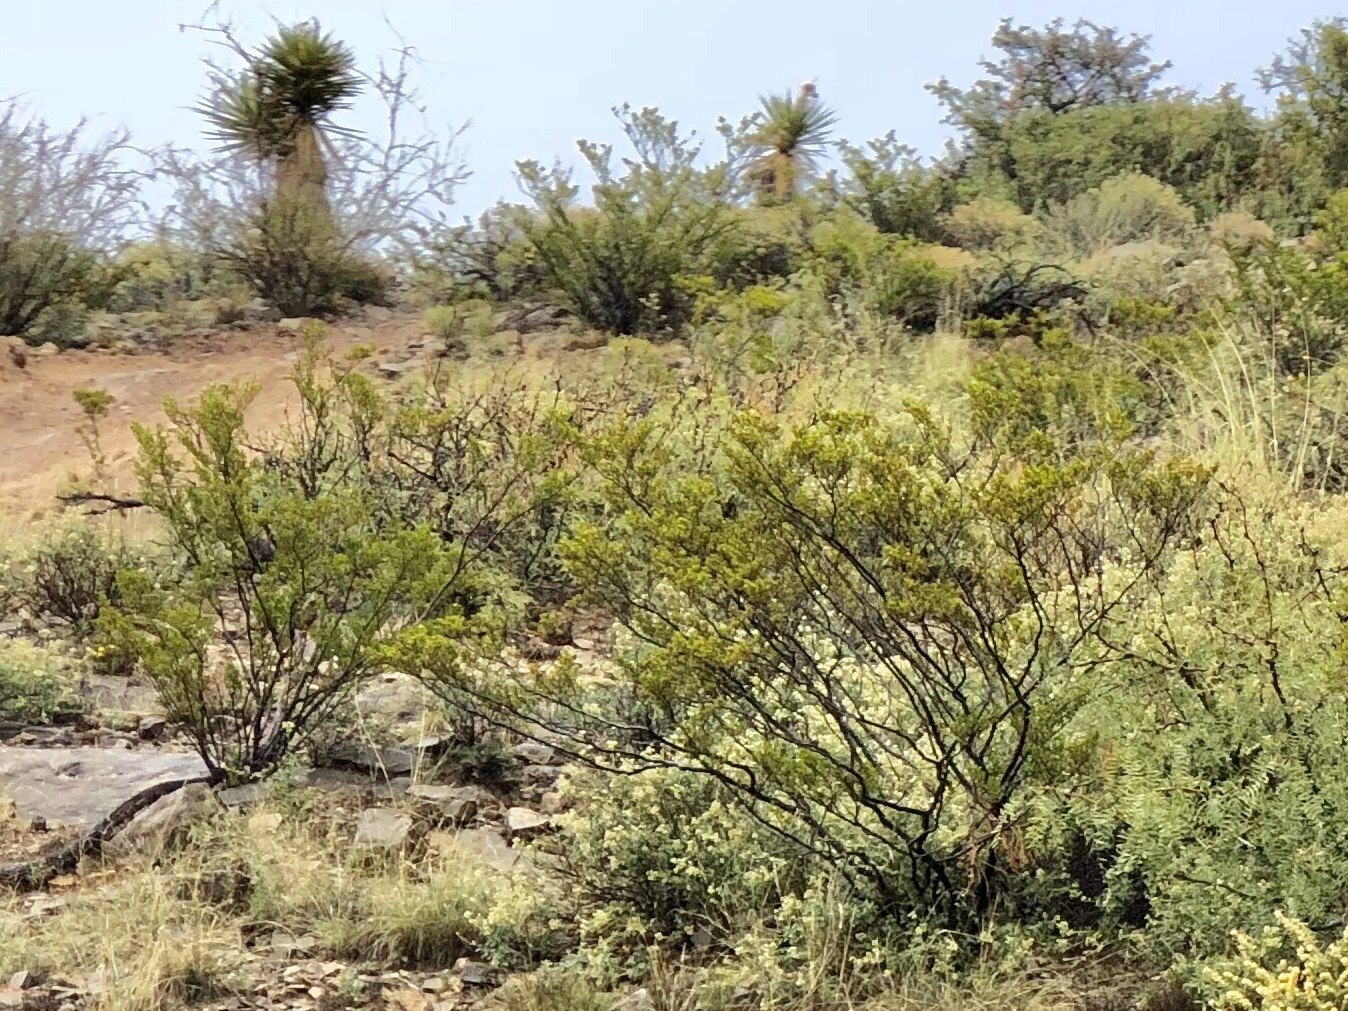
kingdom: Plantae
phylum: Tracheophyta
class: Magnoliopsida
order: Zygophyllales
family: Zygophyllaceae
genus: Larrea
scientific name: Larrea tridentata
